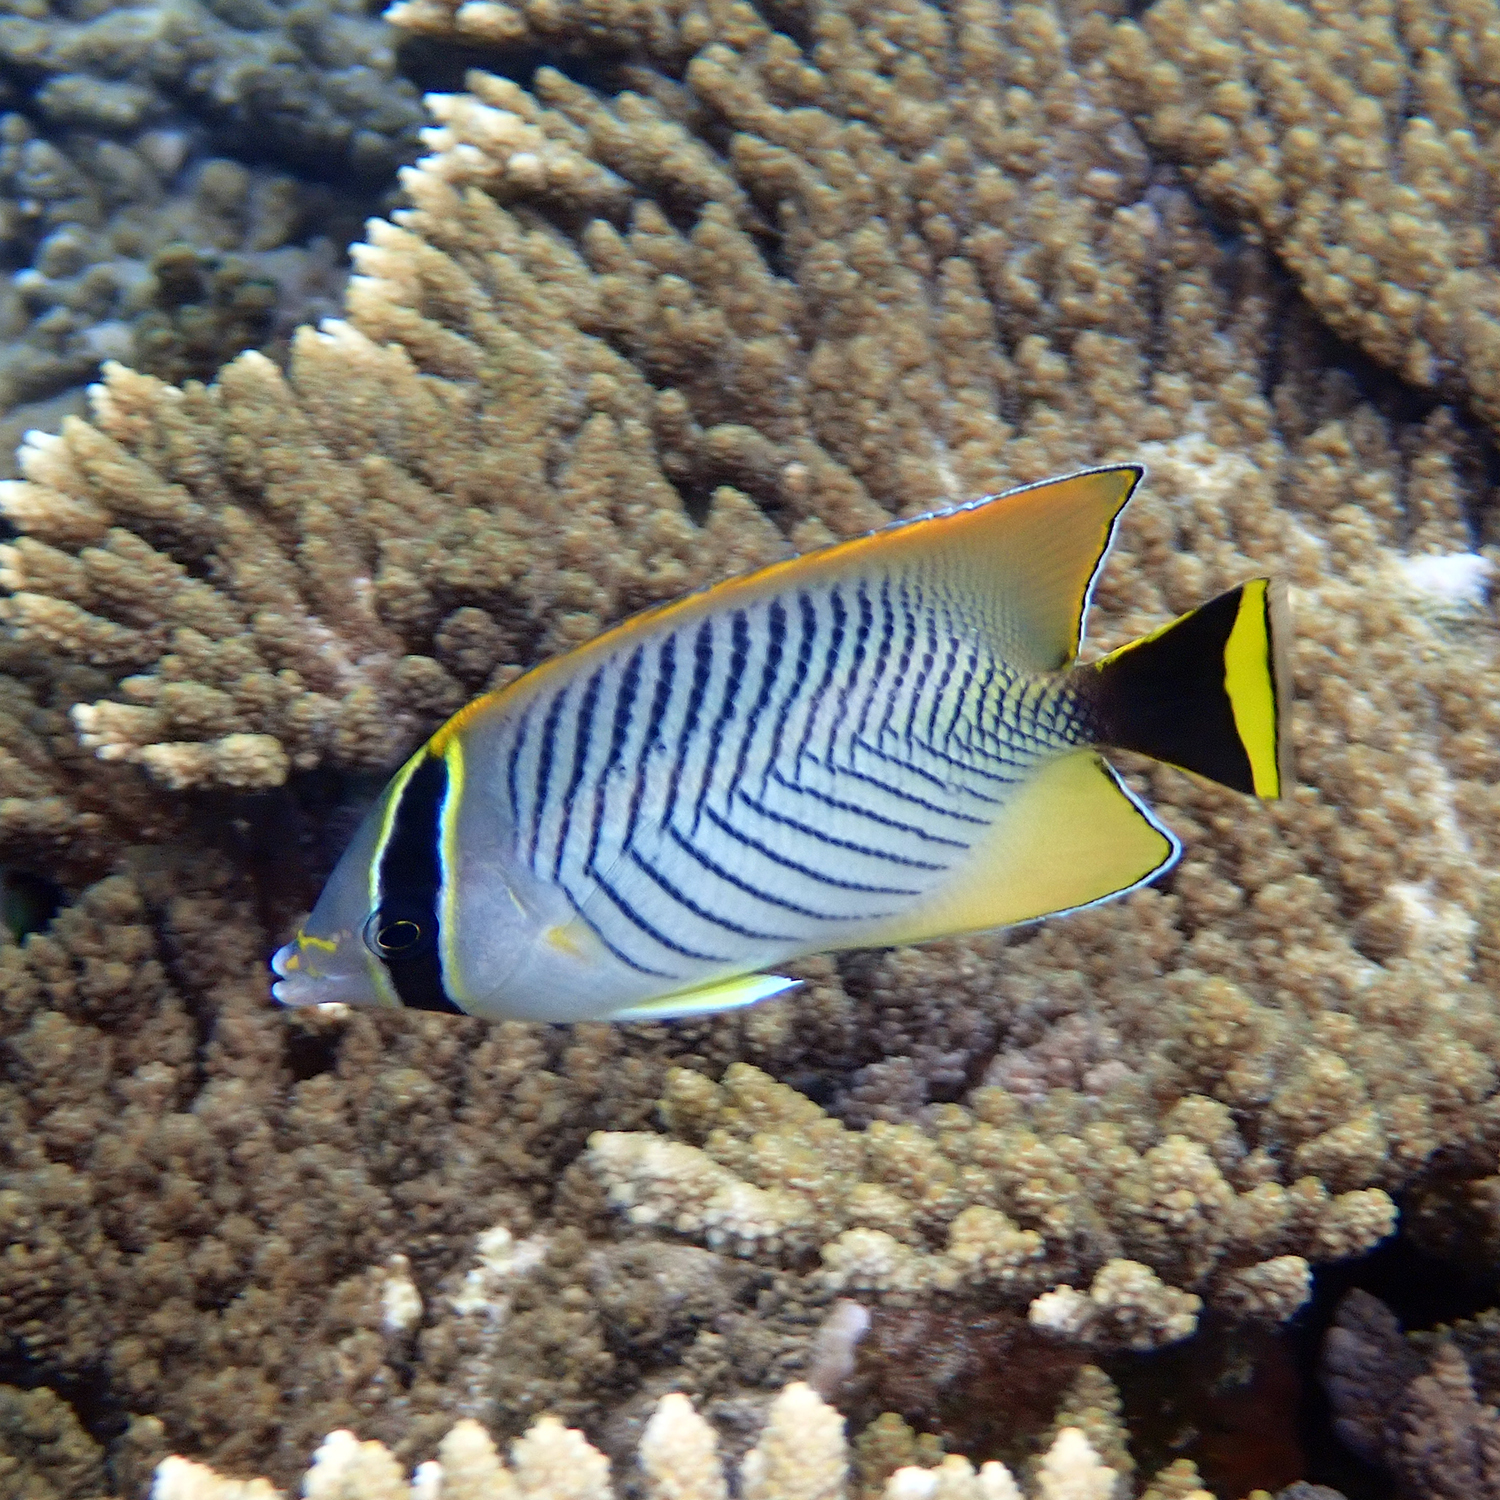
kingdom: Animalia
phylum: Chordata
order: Perciformes
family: Chaetodontidae
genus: Chaetodon
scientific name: Chaetodon trifascialis
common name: Chevroned butterflyfish
